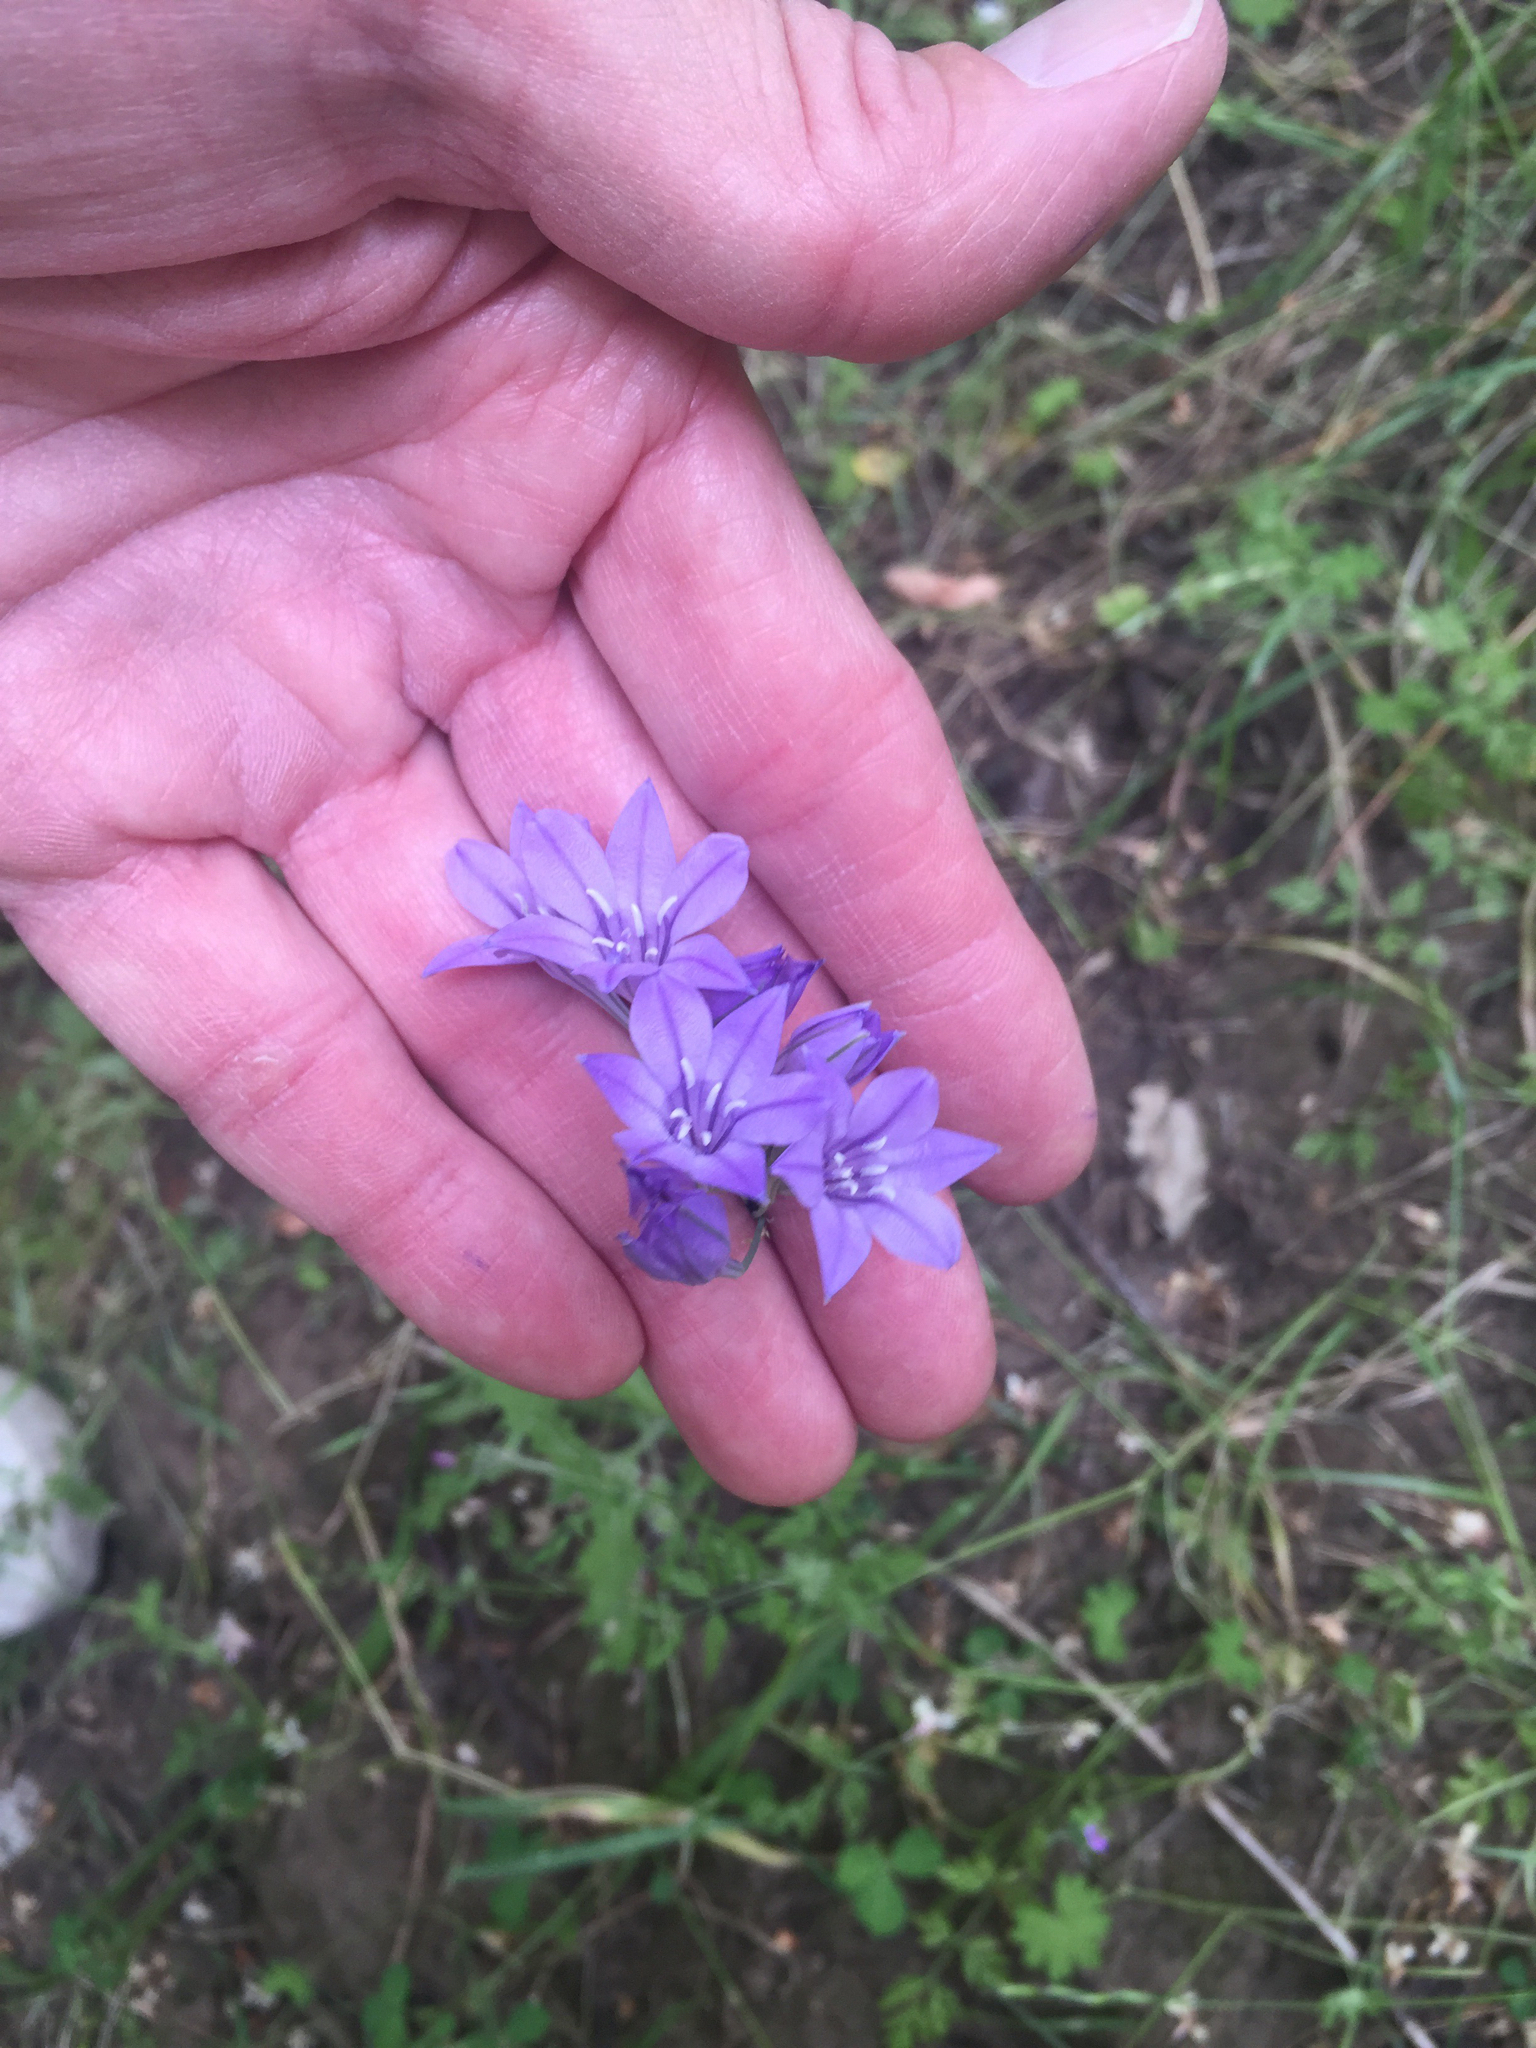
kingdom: Plantae
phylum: Tracheophyta
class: Liliopsida
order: Asparagales
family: Asparagaceae
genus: Triteleia
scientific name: Triteleia laxa
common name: Triplet-lily
